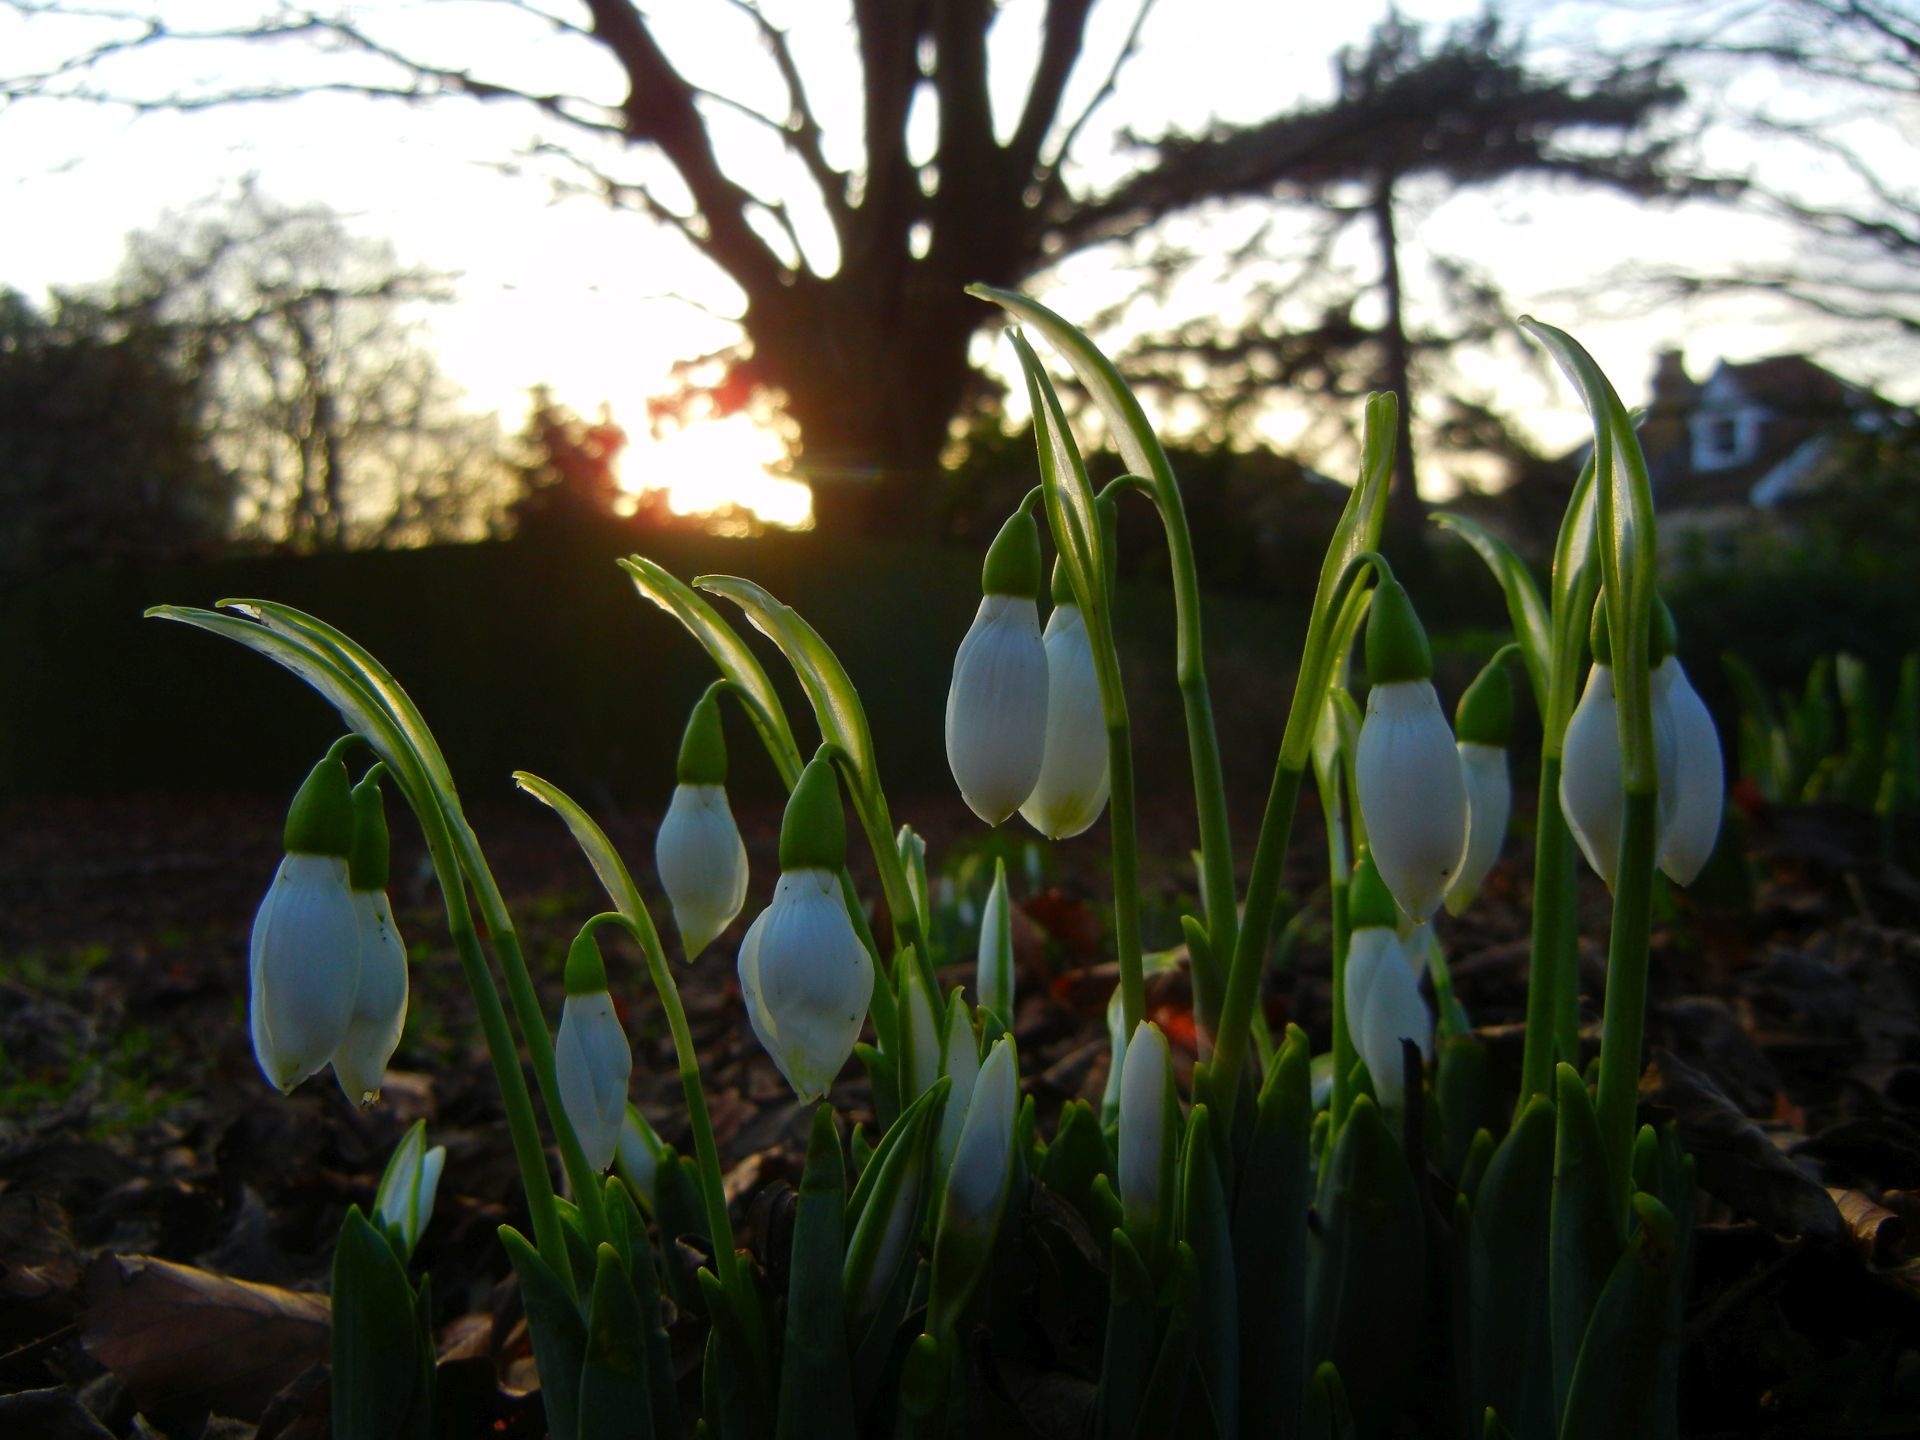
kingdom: Plantae
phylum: Tracheophyta
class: Liliopsida
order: Asparagales
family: Amaryllidaceae
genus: Galanthus
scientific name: Galanthus nivalis
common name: Snowdrop
